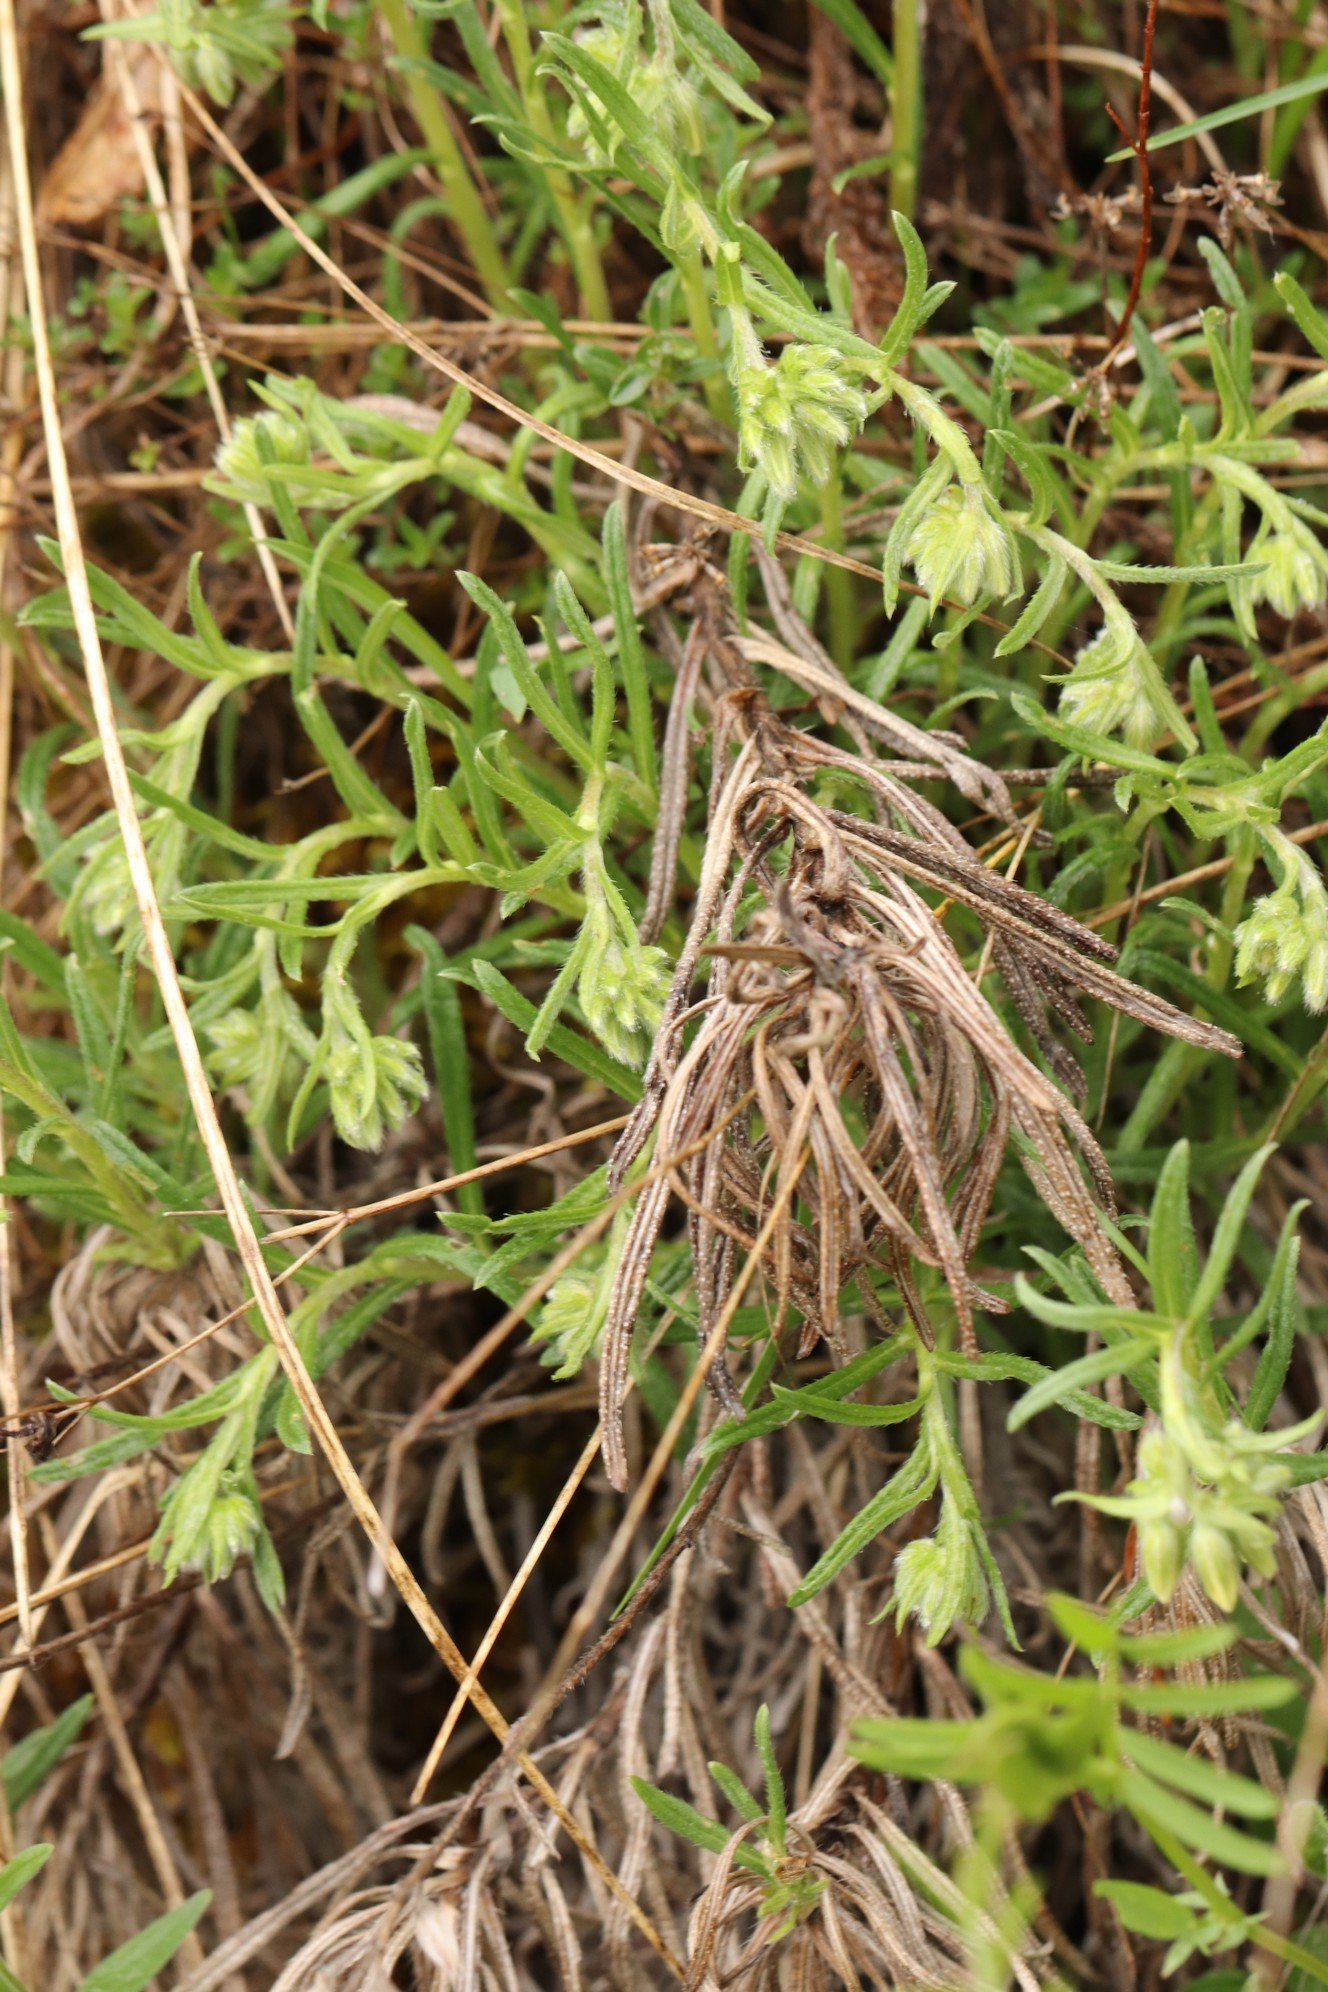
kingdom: Plantae
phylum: Tracheophyta
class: Magnoliopsida
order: Boraginales
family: Boraginaceae
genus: Onosma
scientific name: Onosma simplicissima
